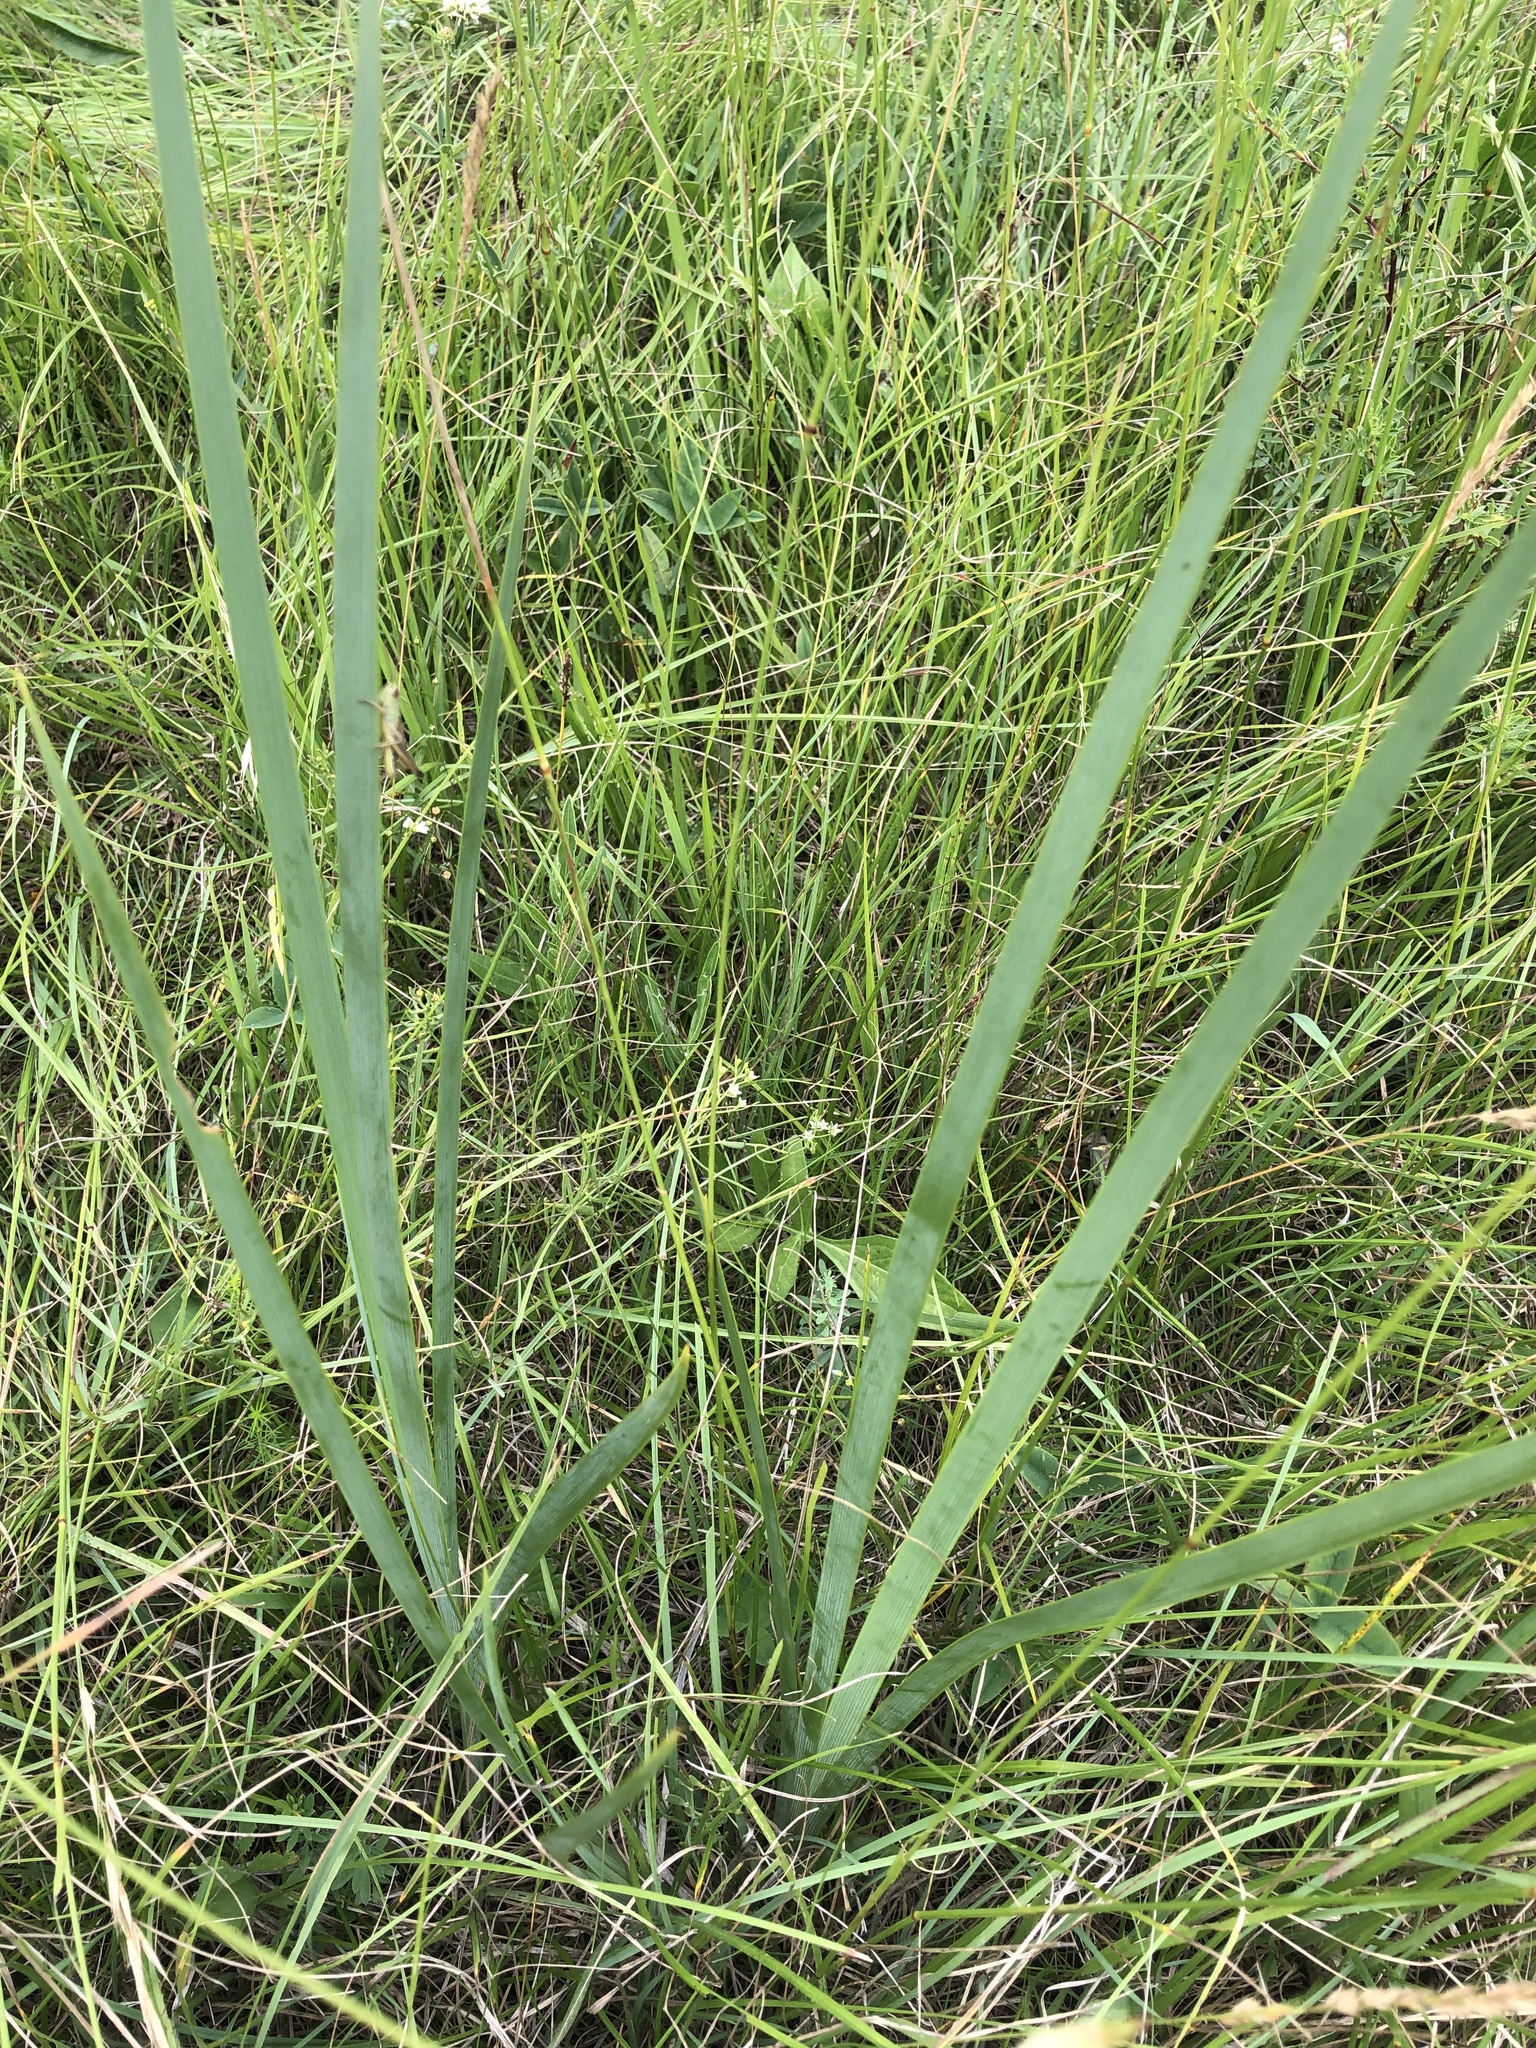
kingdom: Plantae
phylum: Tracheophyta
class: Liliopsida
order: Asparagales
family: Iridaceae
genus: Iris
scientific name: Iris spuria
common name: Blue iris
